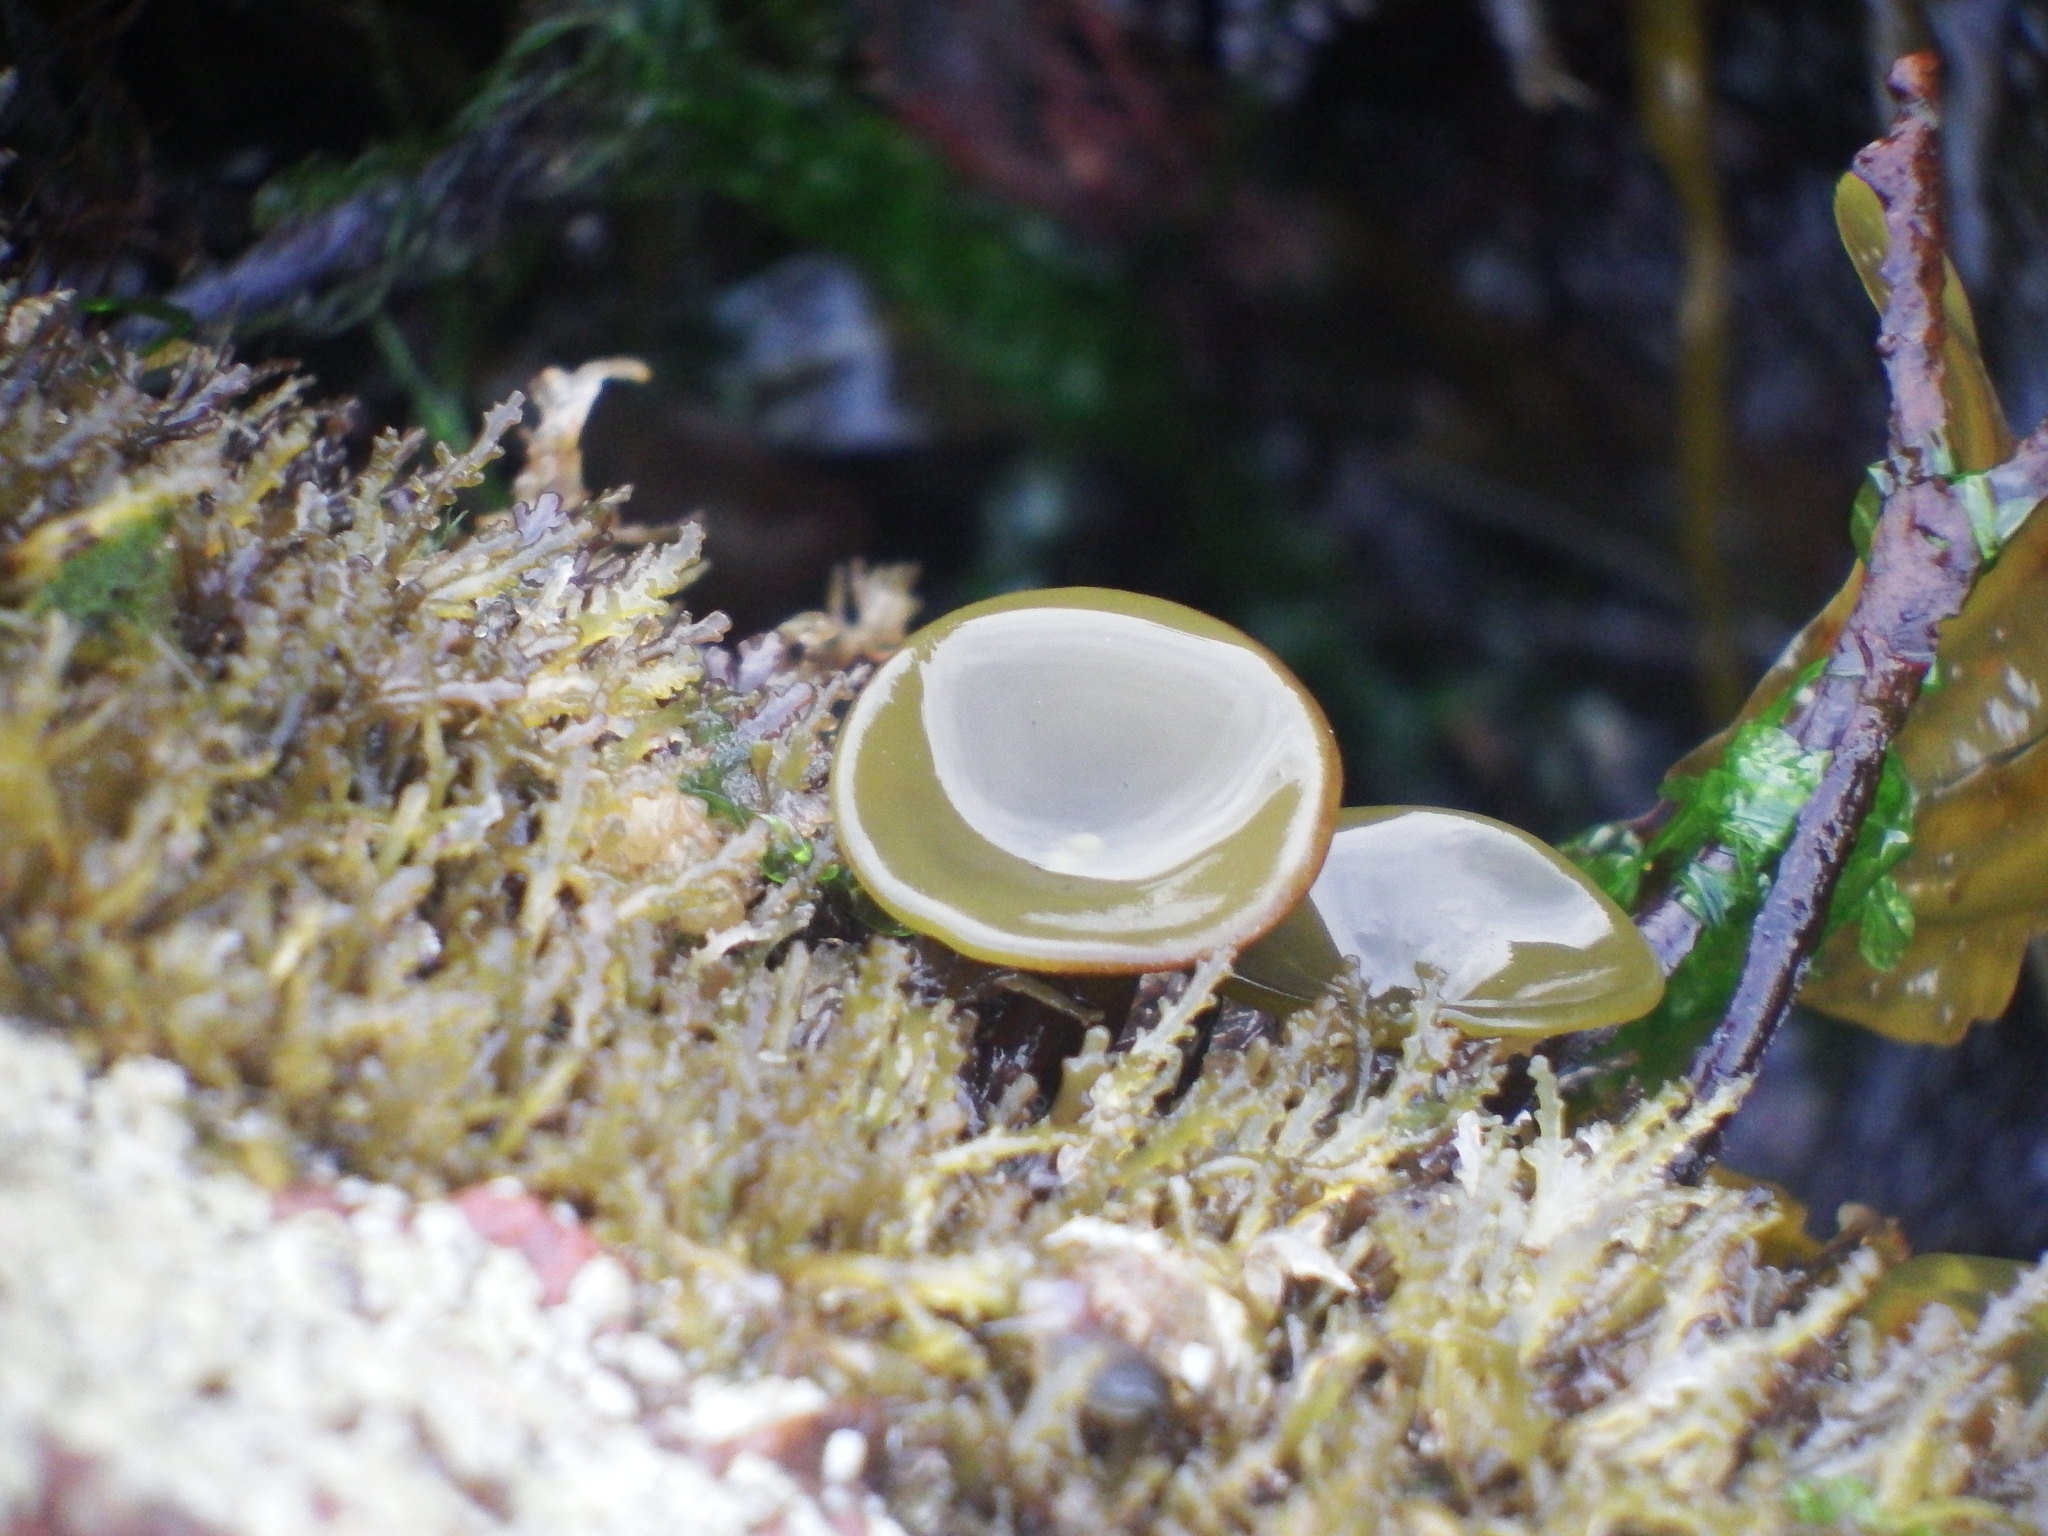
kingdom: Chromista
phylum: Ochrophyta
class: Phaeophyceae
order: Fucales
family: Himanthaliaceae
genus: Himanthalia
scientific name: Himanthalia elongata
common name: Sea-thong
